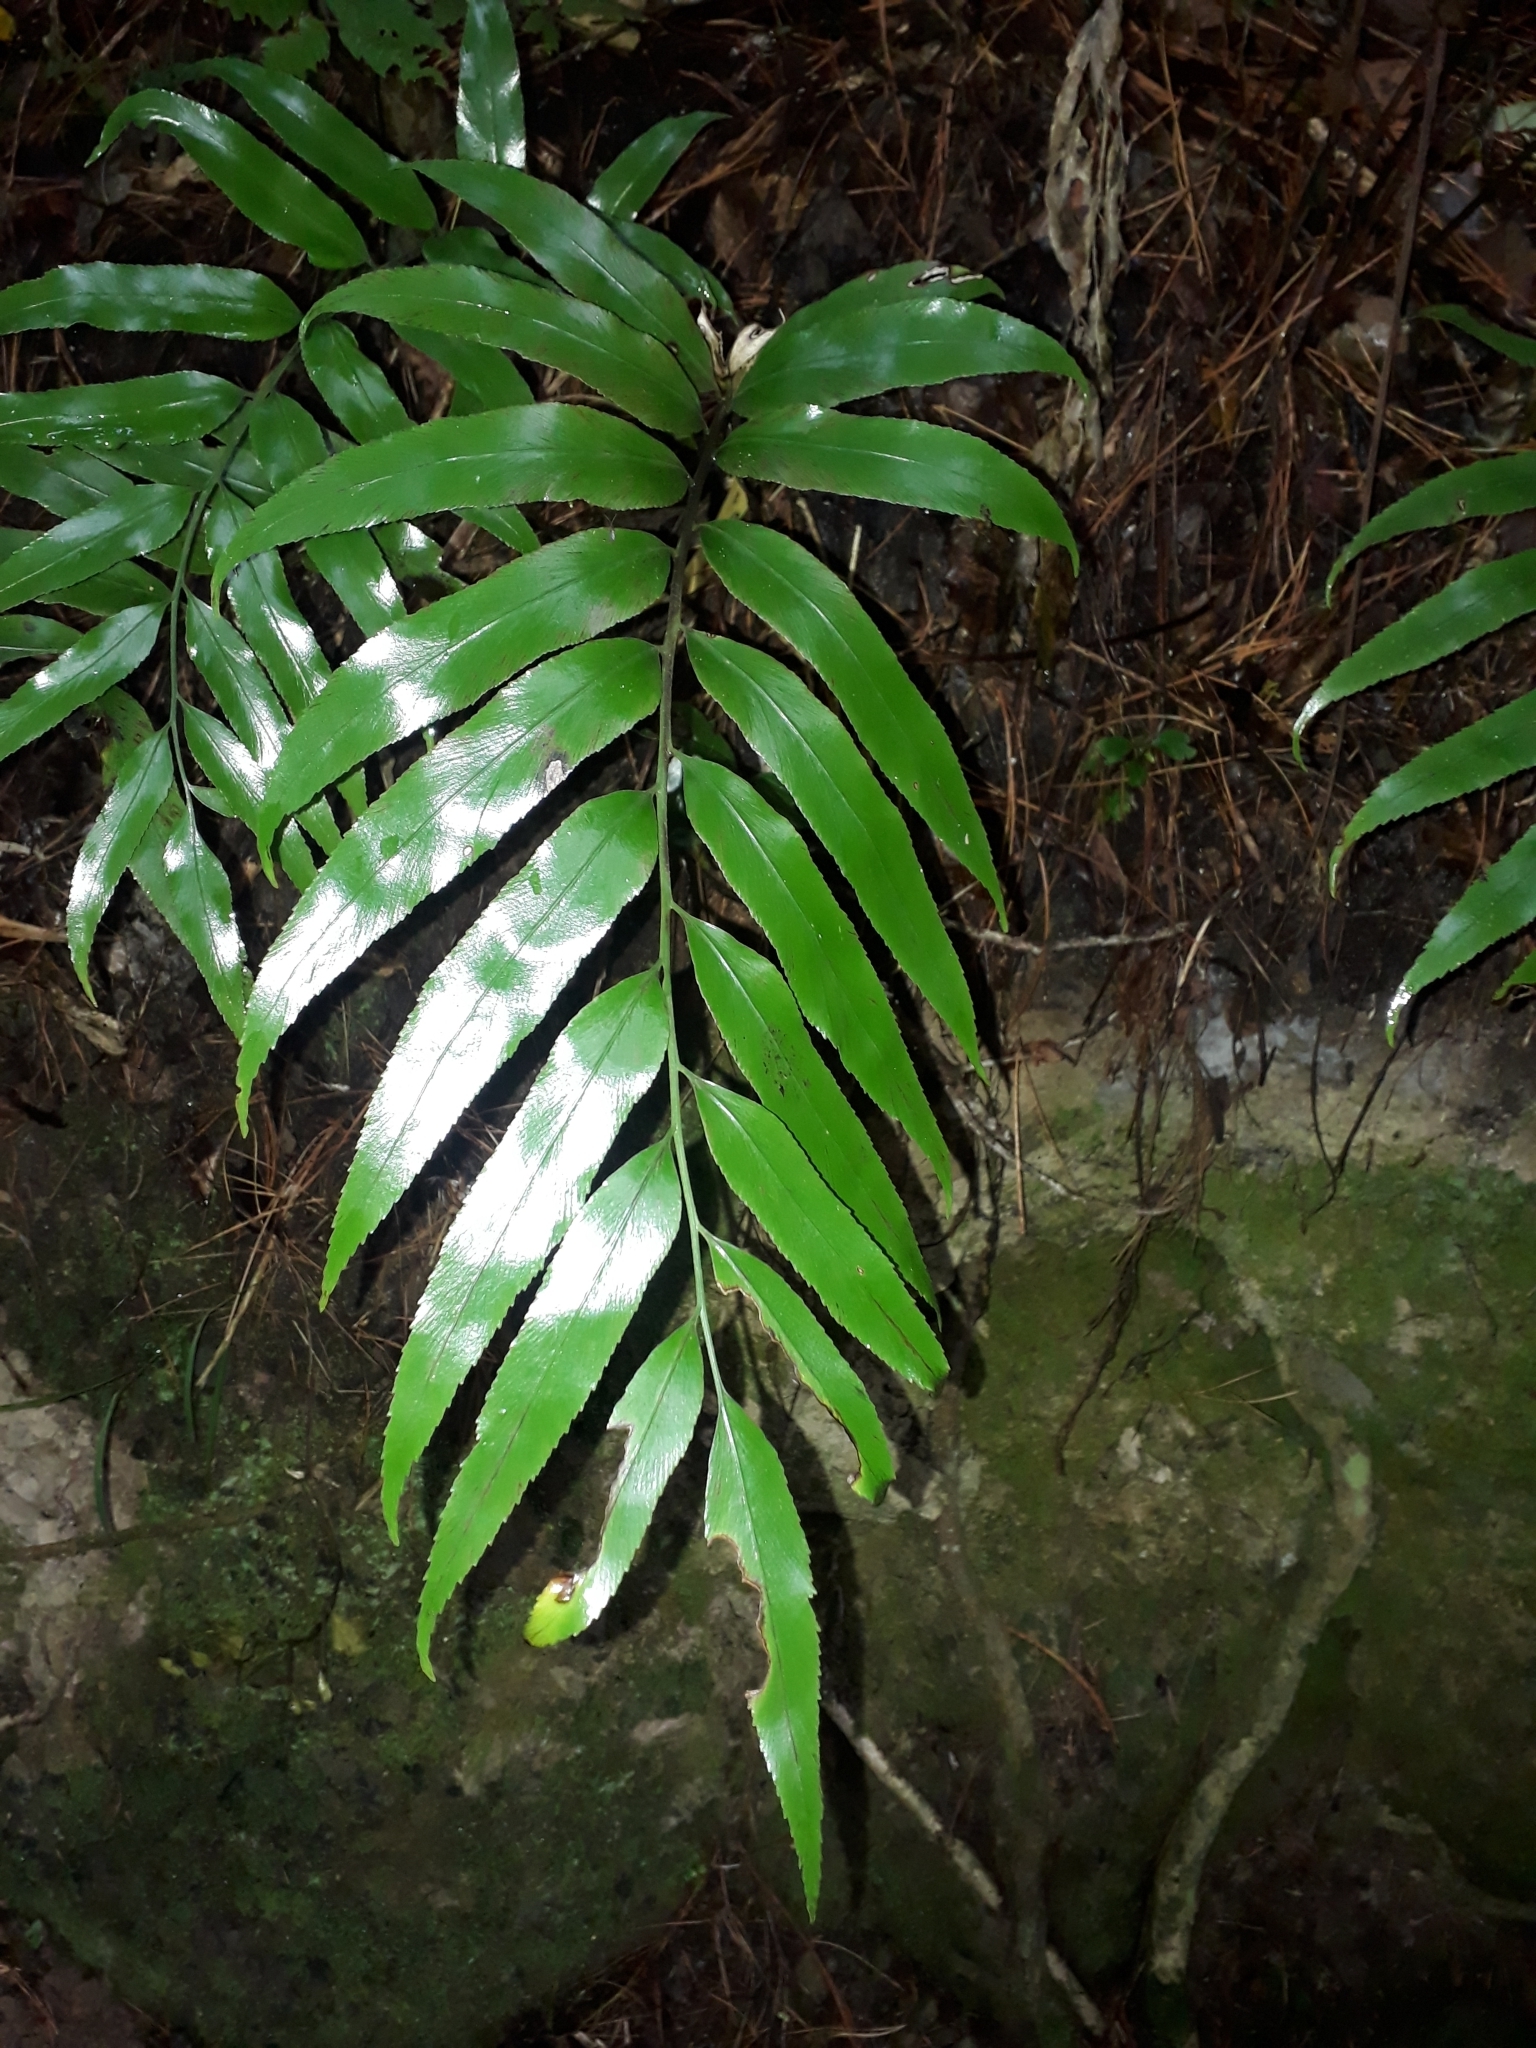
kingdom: Plantae
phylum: Tracheophyta
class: Polypodiopsida
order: Polypodiales
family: Aspleniaceae
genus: Asplenium
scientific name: Asplenium oblongifolium
